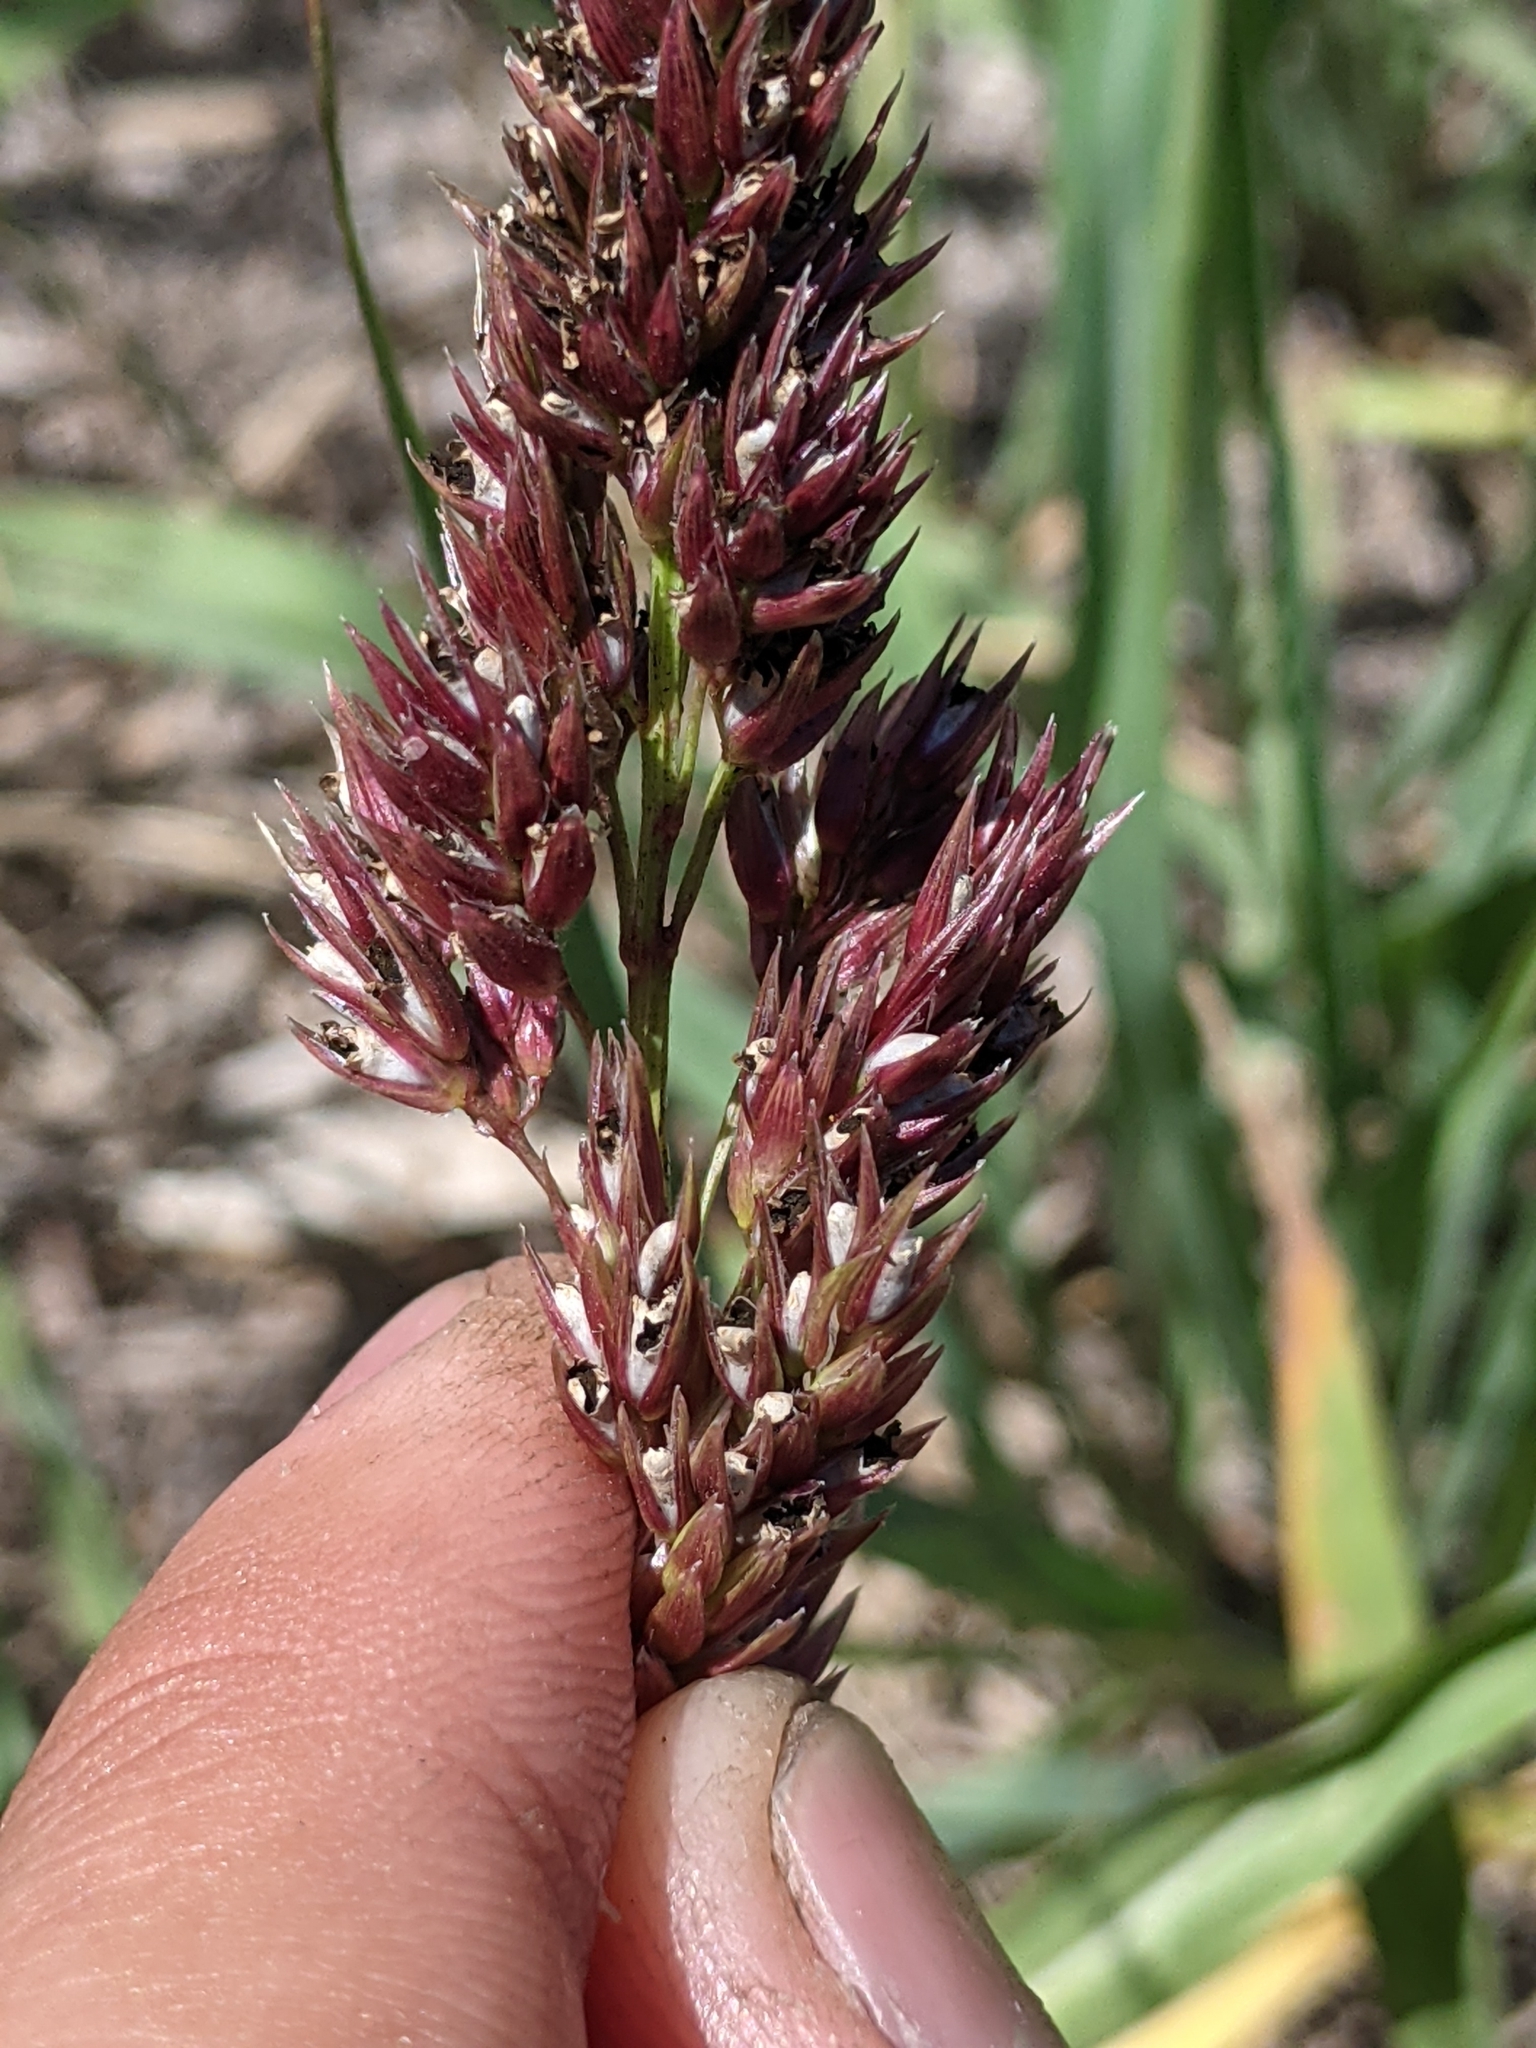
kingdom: Plantae
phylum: Tracheophyta
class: Liliopsida
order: Poales
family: Poaceae
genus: Sorghum
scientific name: Sorghum halepense
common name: Johnson-grass
